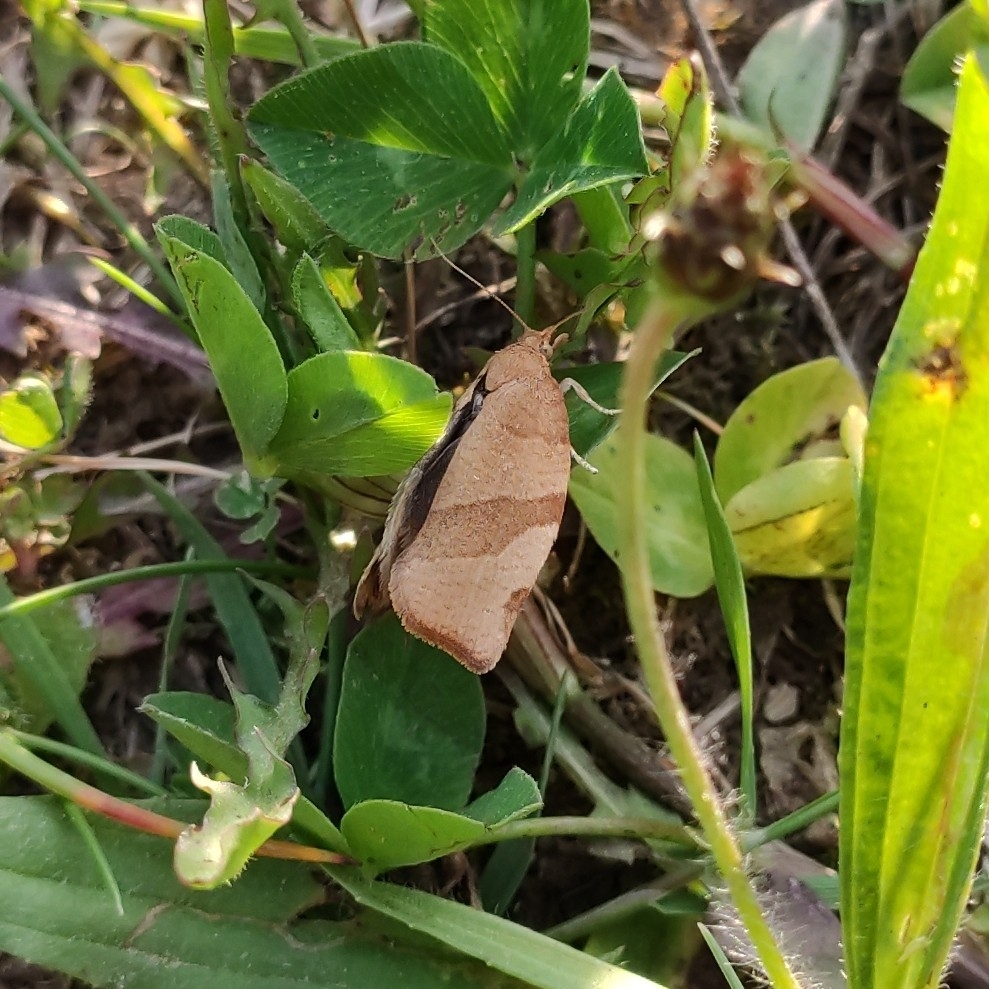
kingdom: Animalia
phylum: Arthropoda
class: Insecta
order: Lepidoptera
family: Tortricidae
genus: Pandemis
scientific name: Pandemis cerasana
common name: Barred fruit-tree tortrix
